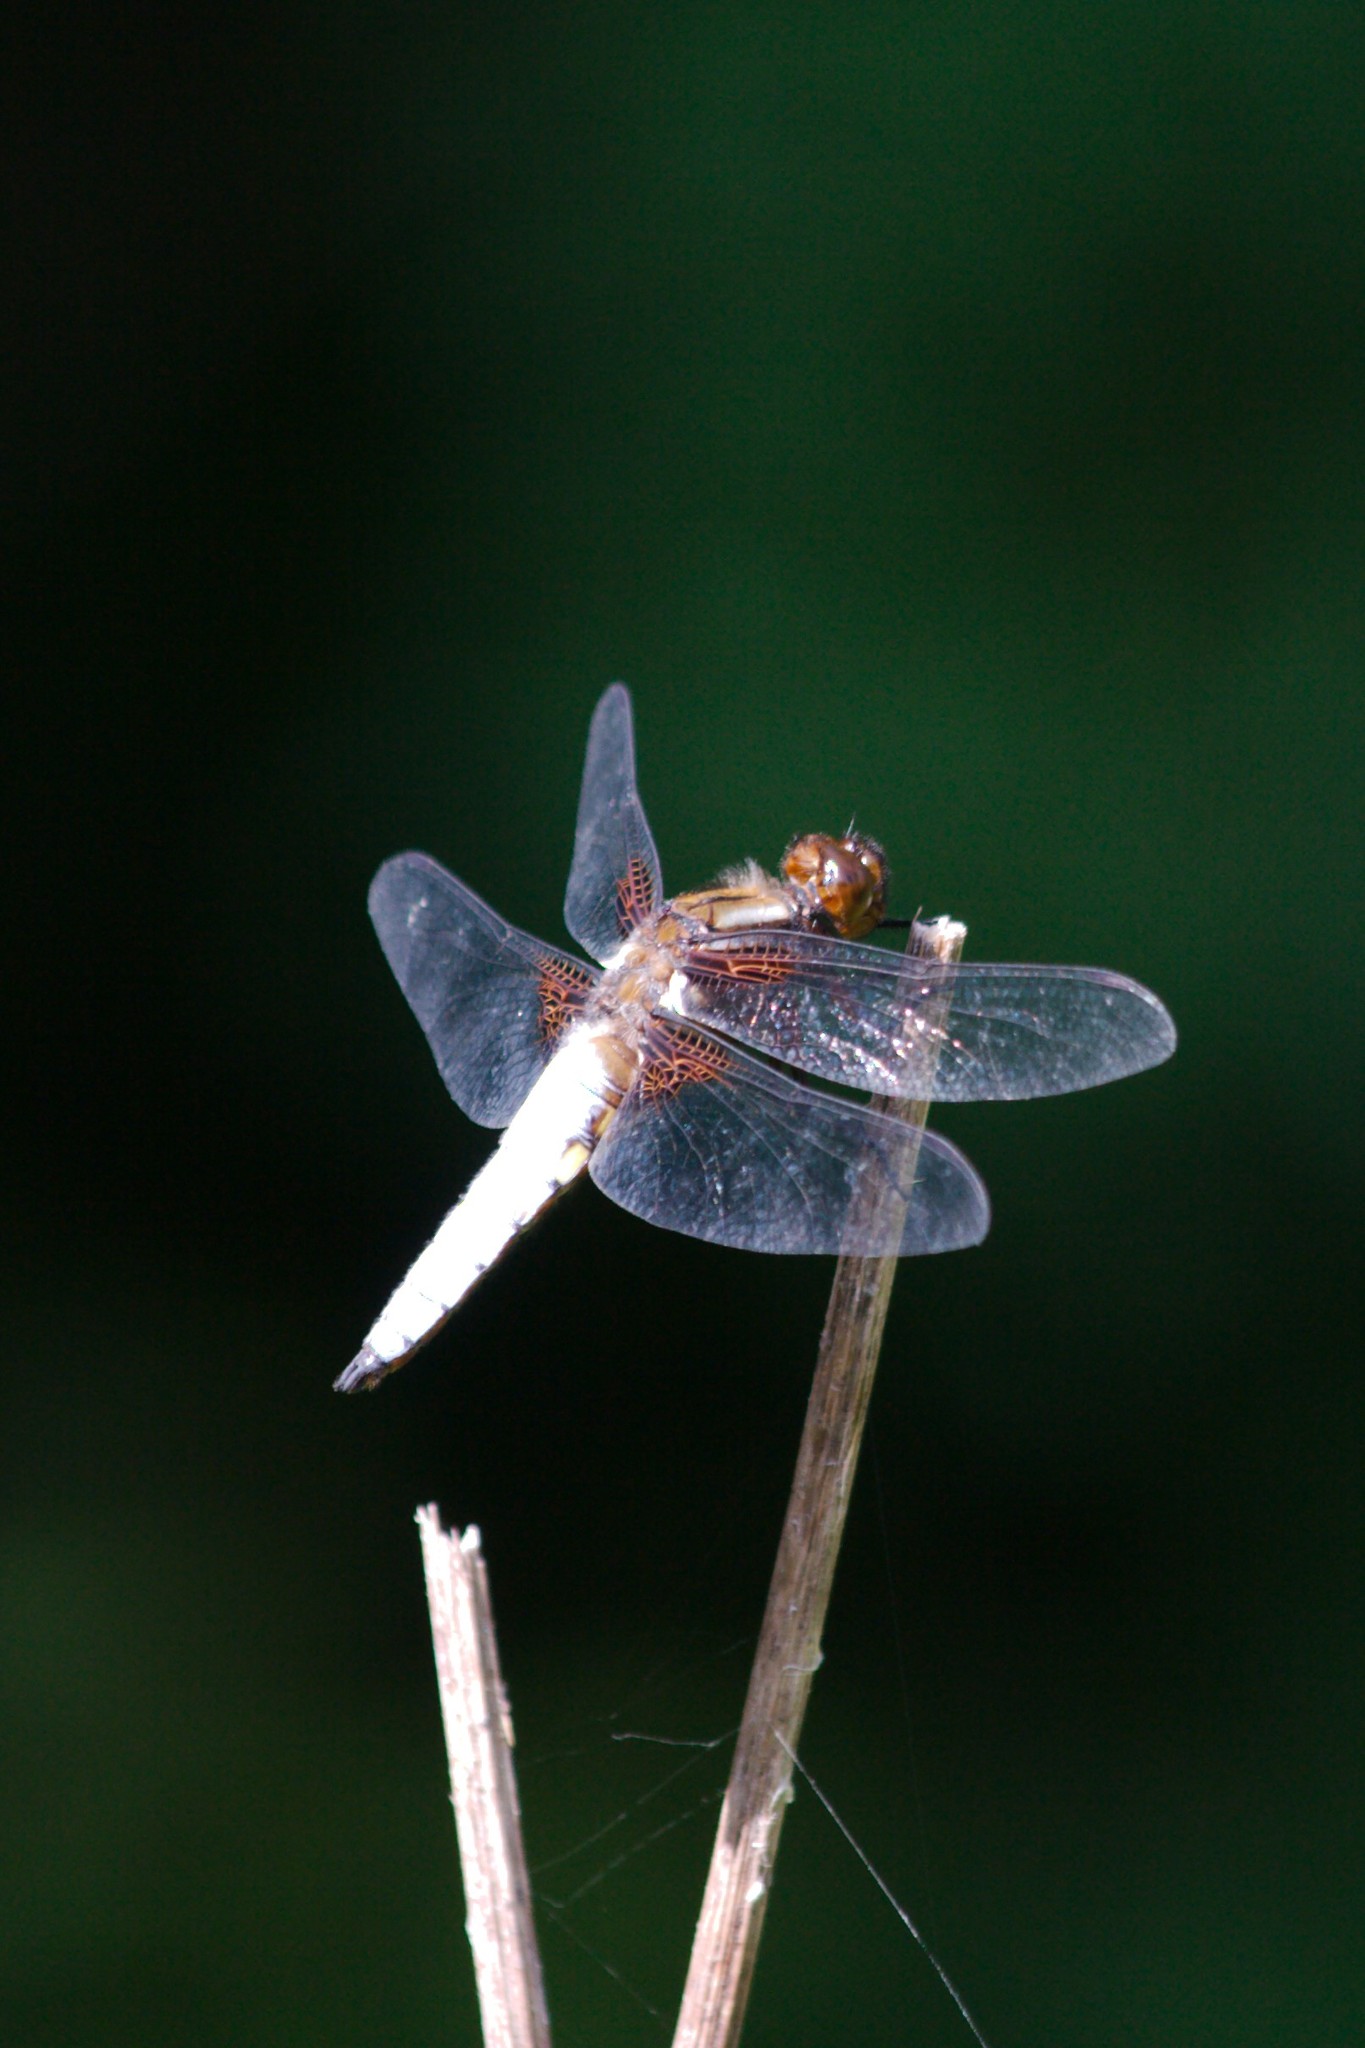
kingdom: Animalia
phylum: Arthropoda
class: Insecta
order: Odonata
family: Libellulidae
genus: Libellula
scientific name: Libellula depressa
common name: Broad-bodied chaser
